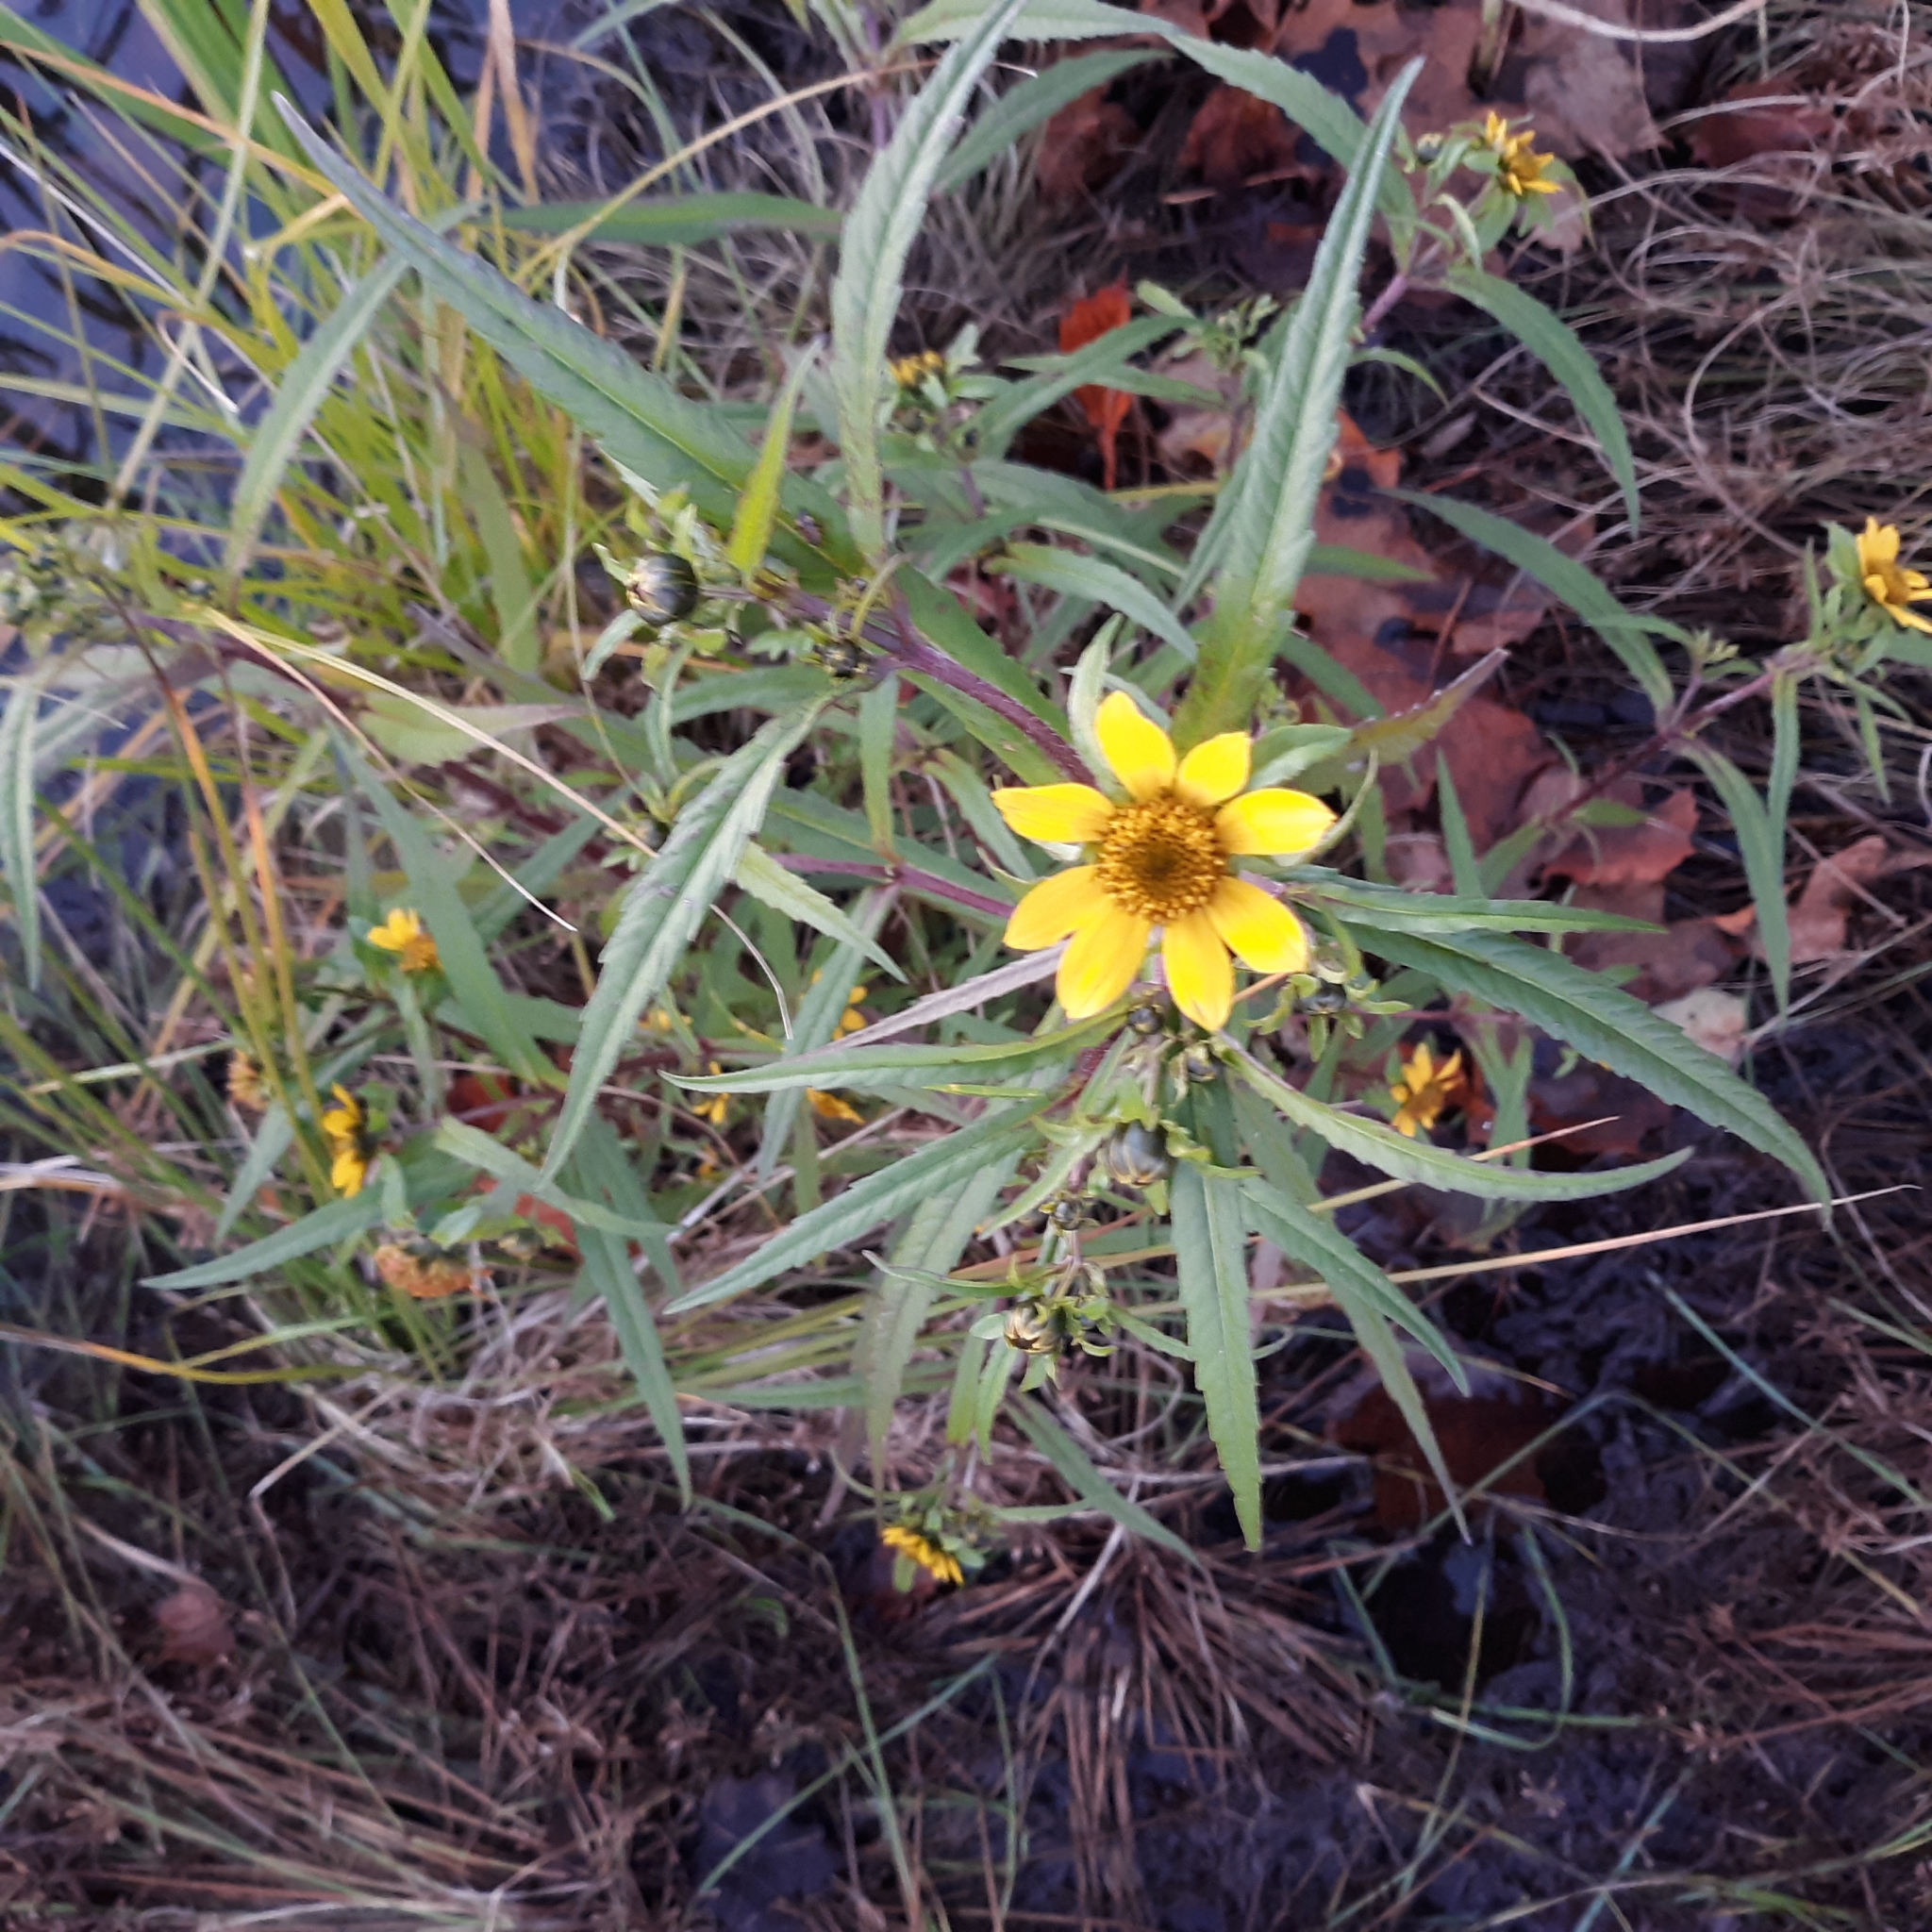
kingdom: Plantae
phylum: Tracheophyta
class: Magnoliopsida
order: Asterales
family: Asteraceae
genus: Bidens
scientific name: Bidens cernua
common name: Nodding bur-marigold
